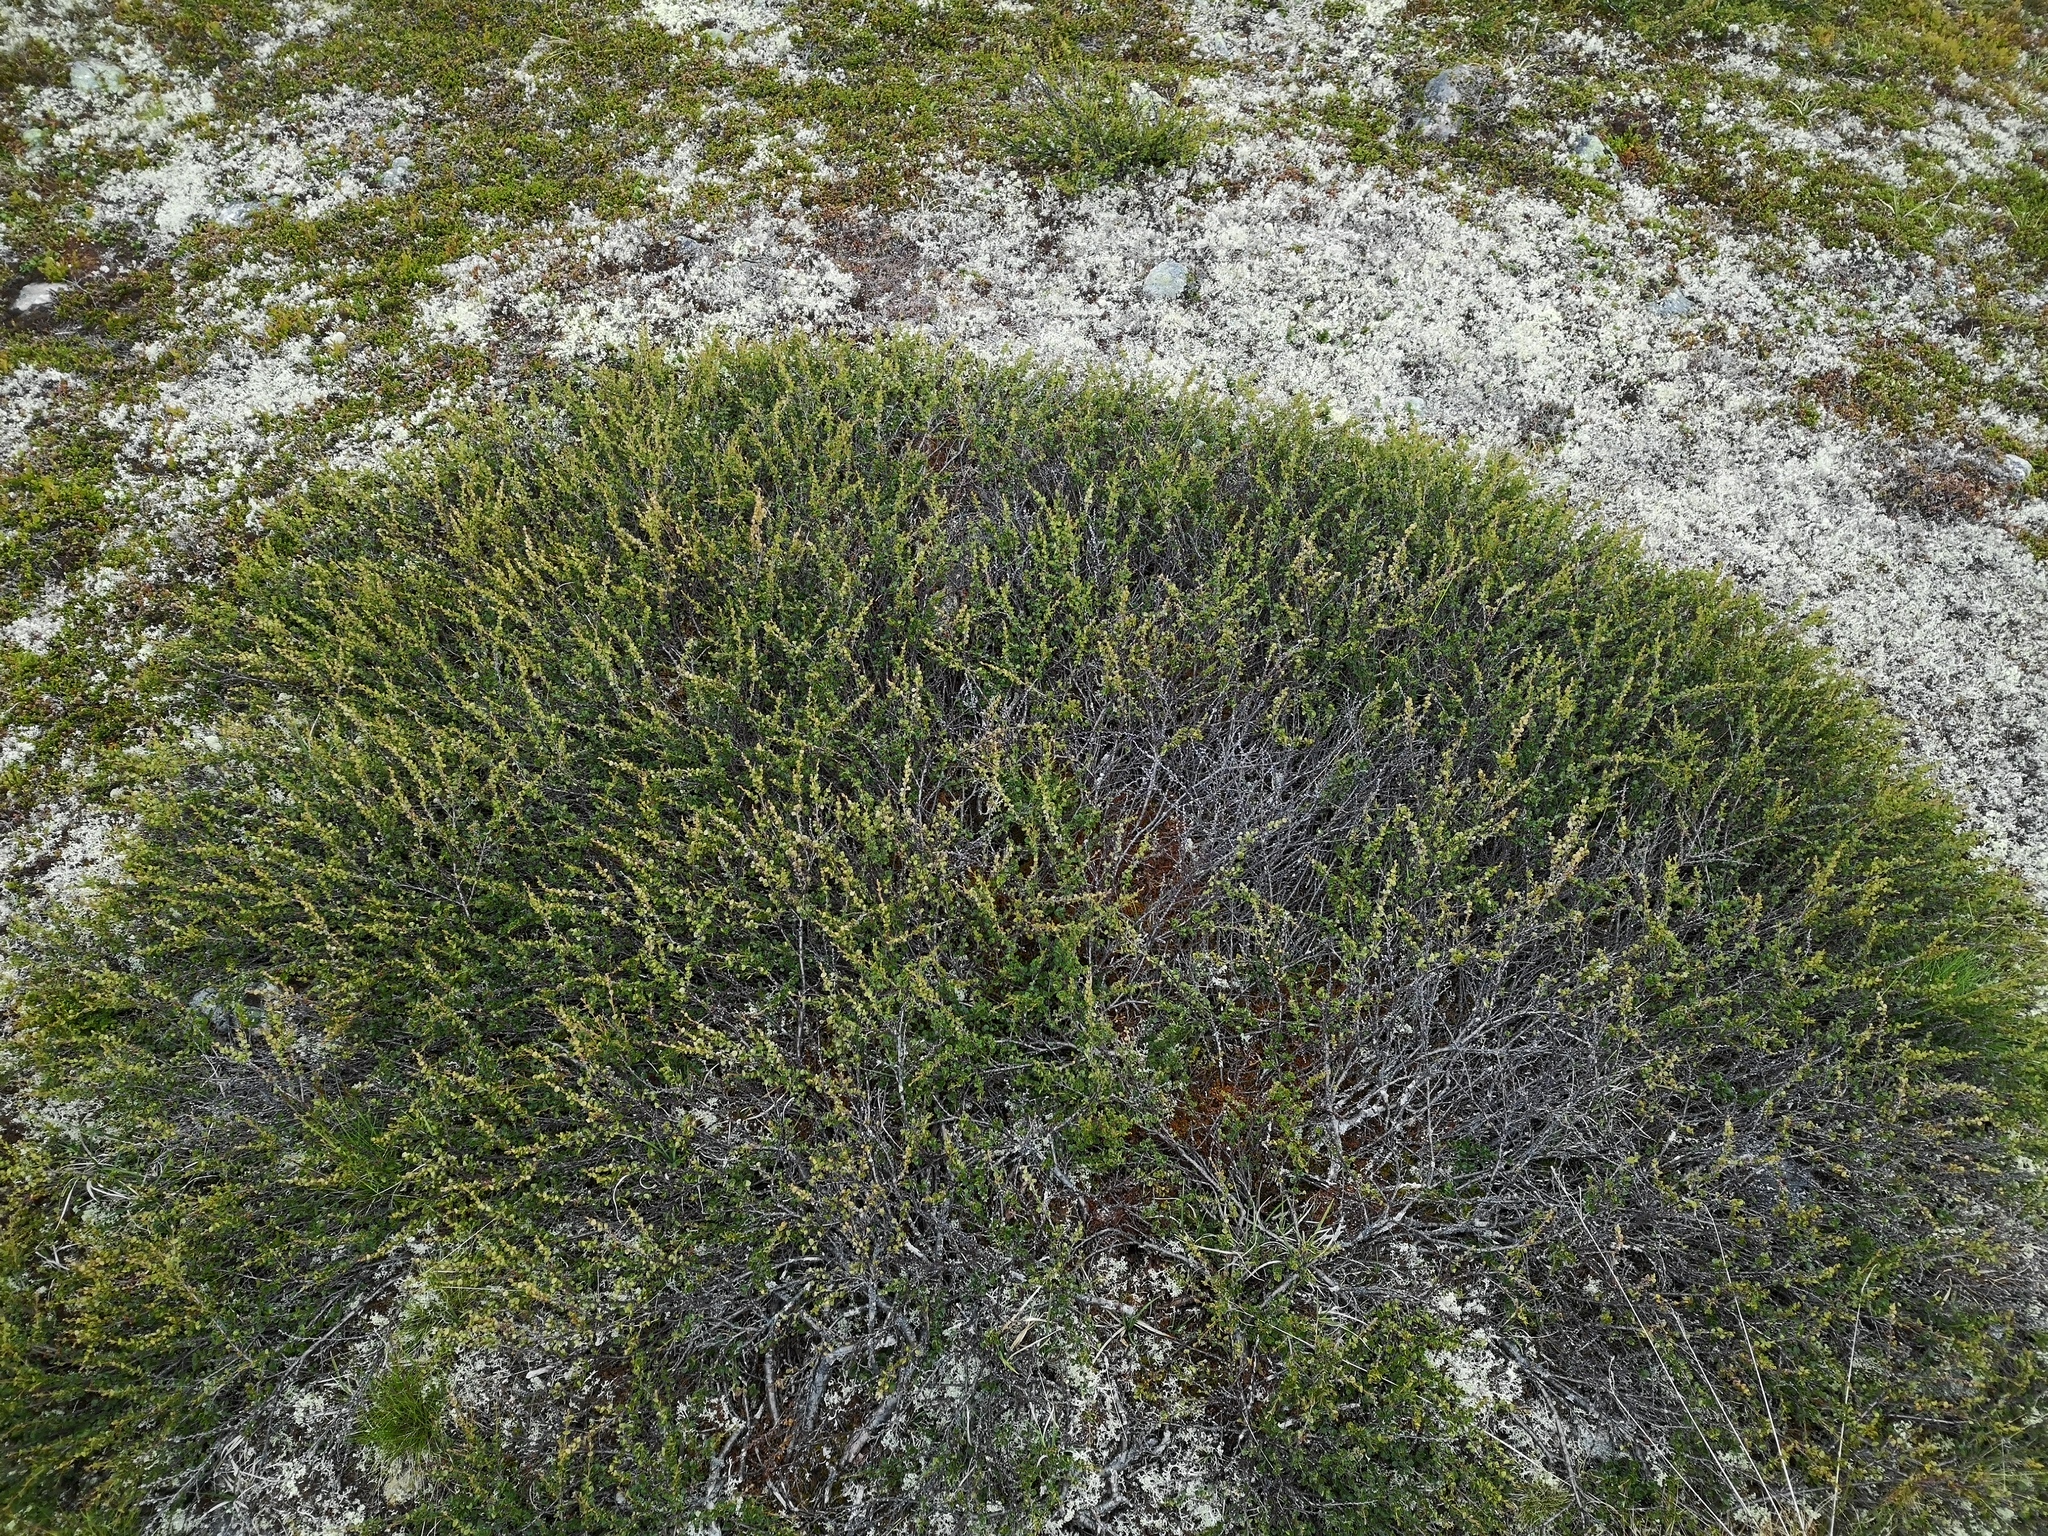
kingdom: Plantae
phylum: Tracheophyta
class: Magnoliopsida
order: Fagales
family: Betulaceae
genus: Betula
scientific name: Betula nana
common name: Arctic dwarf birch
